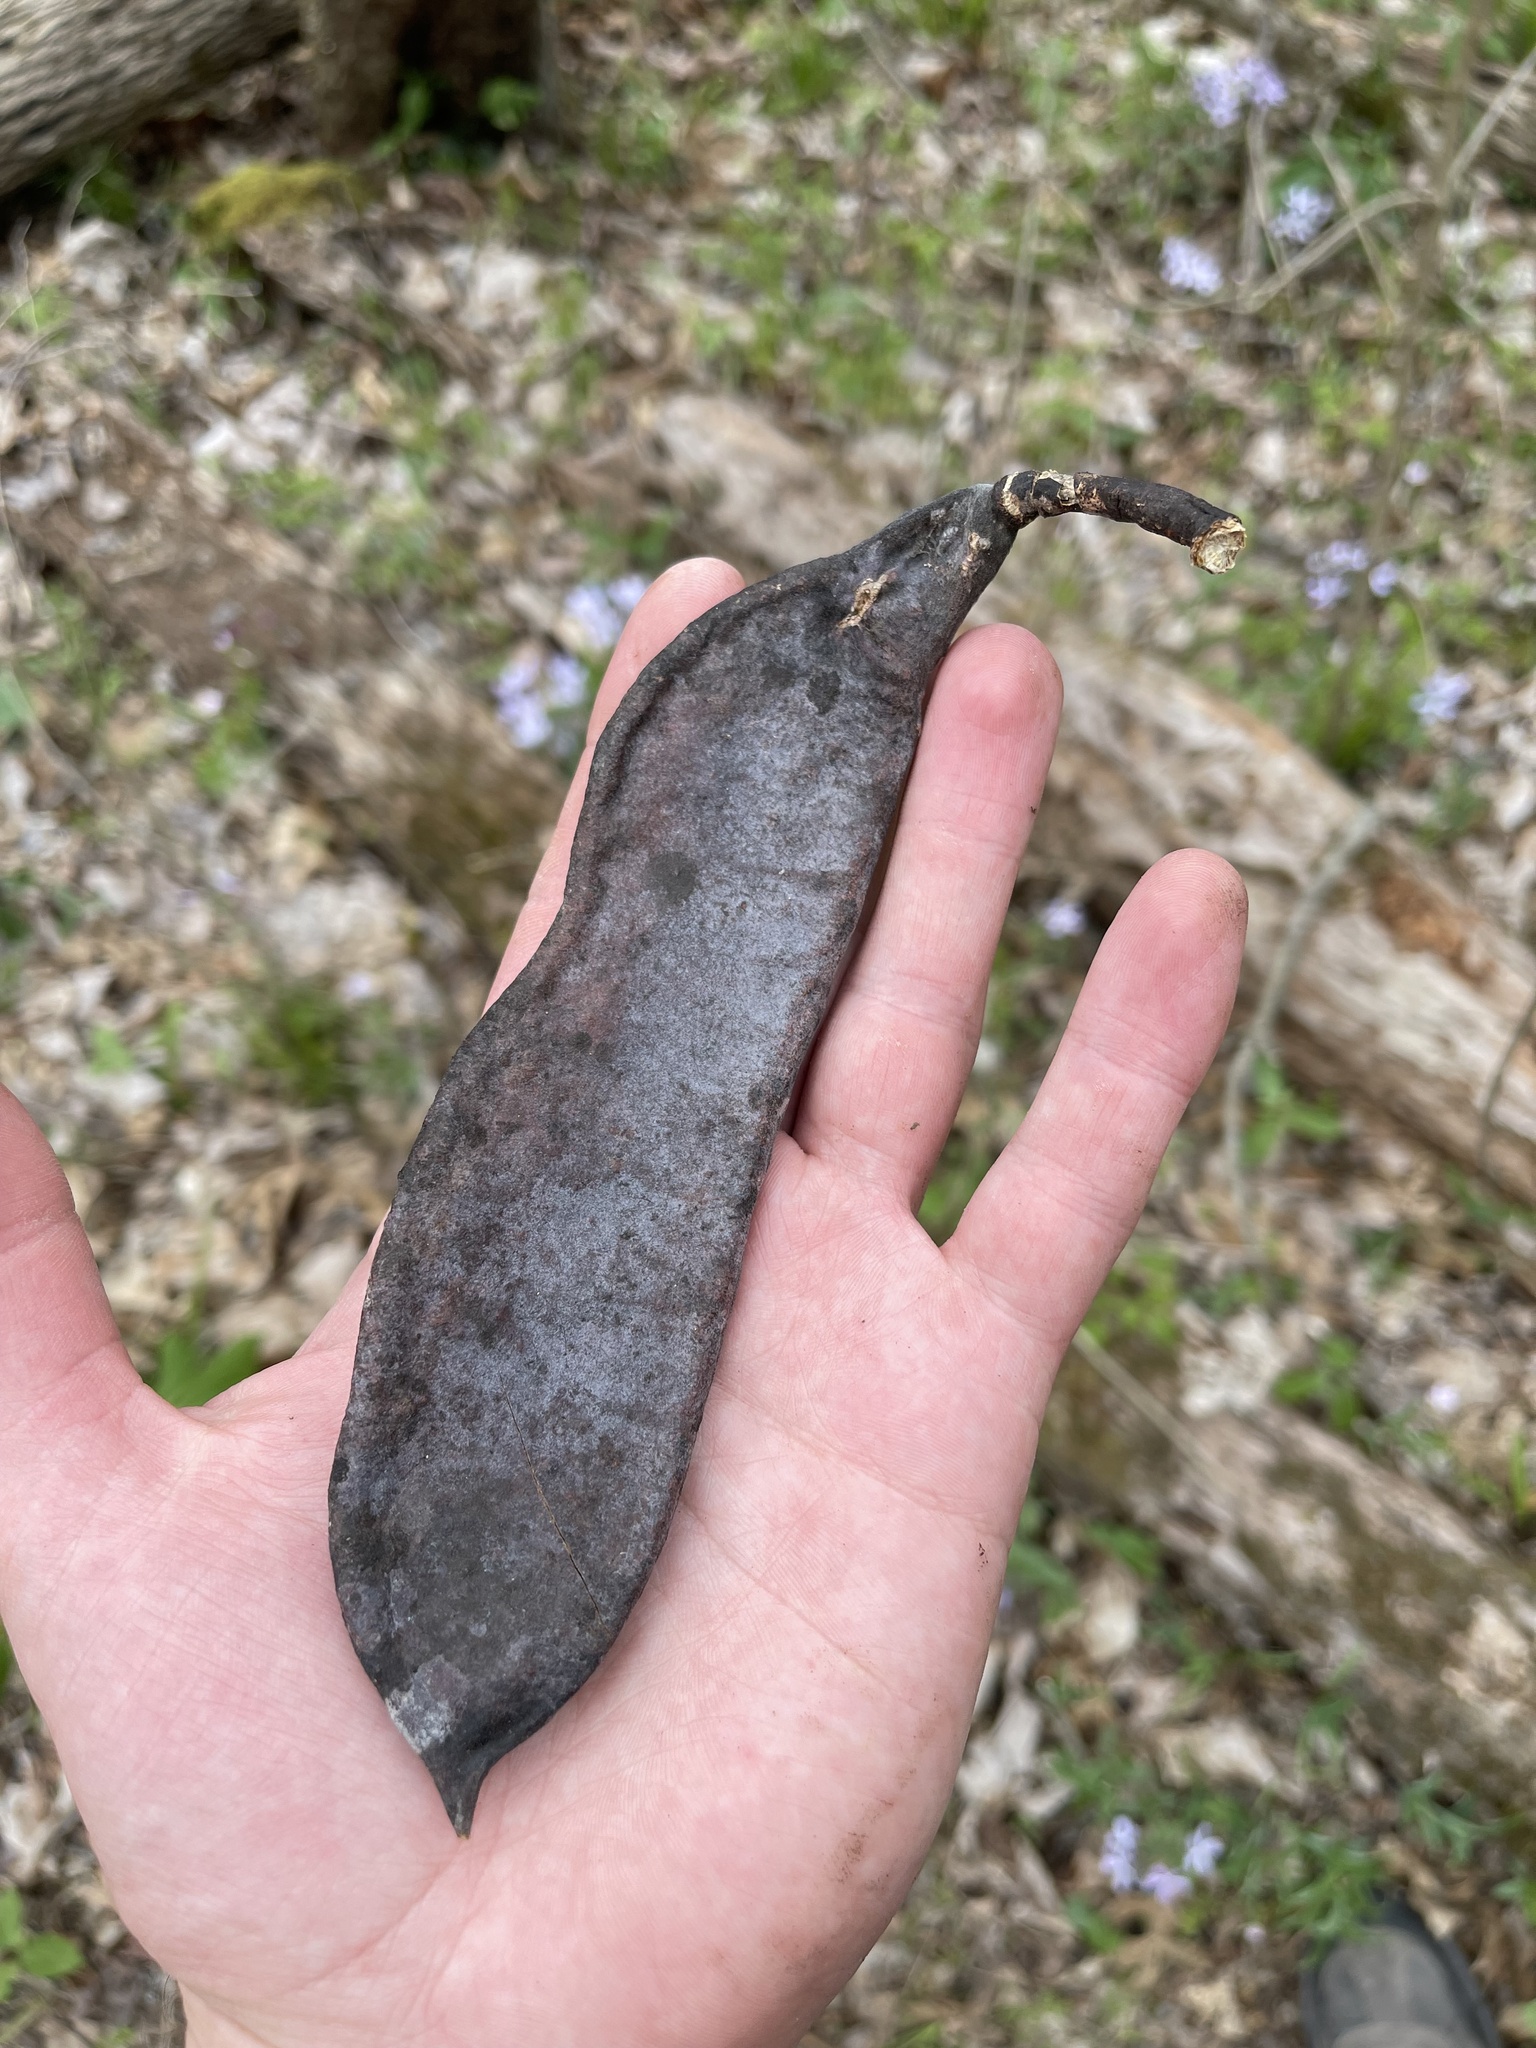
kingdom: Plantae
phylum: Tracheophyta
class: Magnoliopsida
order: Fabales
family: Fabaceae
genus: Gymnocladus
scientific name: Gymnocladus dioicus
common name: Kentucky coffee-tree
